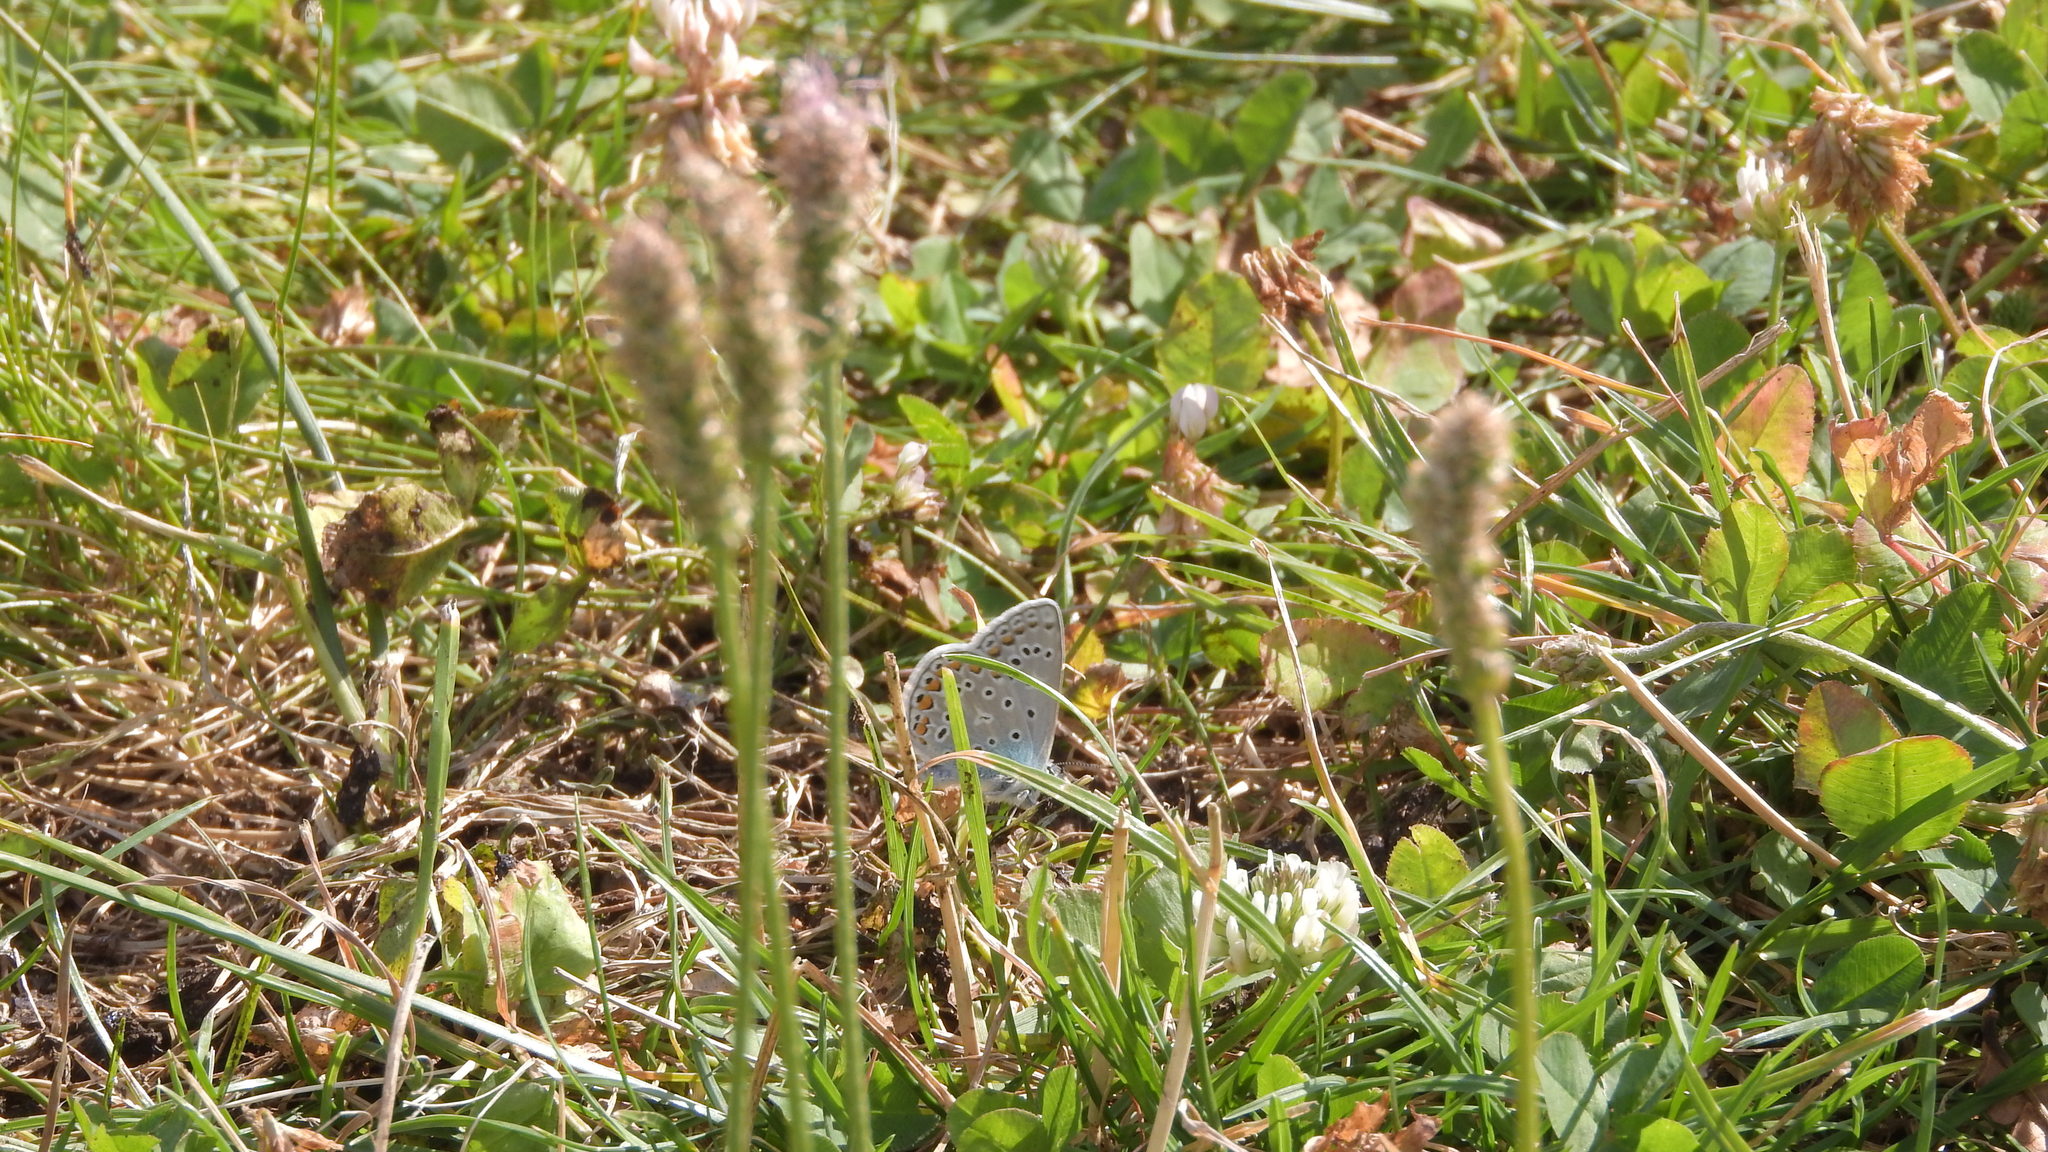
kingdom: Animalia
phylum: Arthropoda
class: Insecta
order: Lepidoptera
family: Lycaenidae
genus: Polyommatus
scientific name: Polyommatus icarus
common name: Common blue
